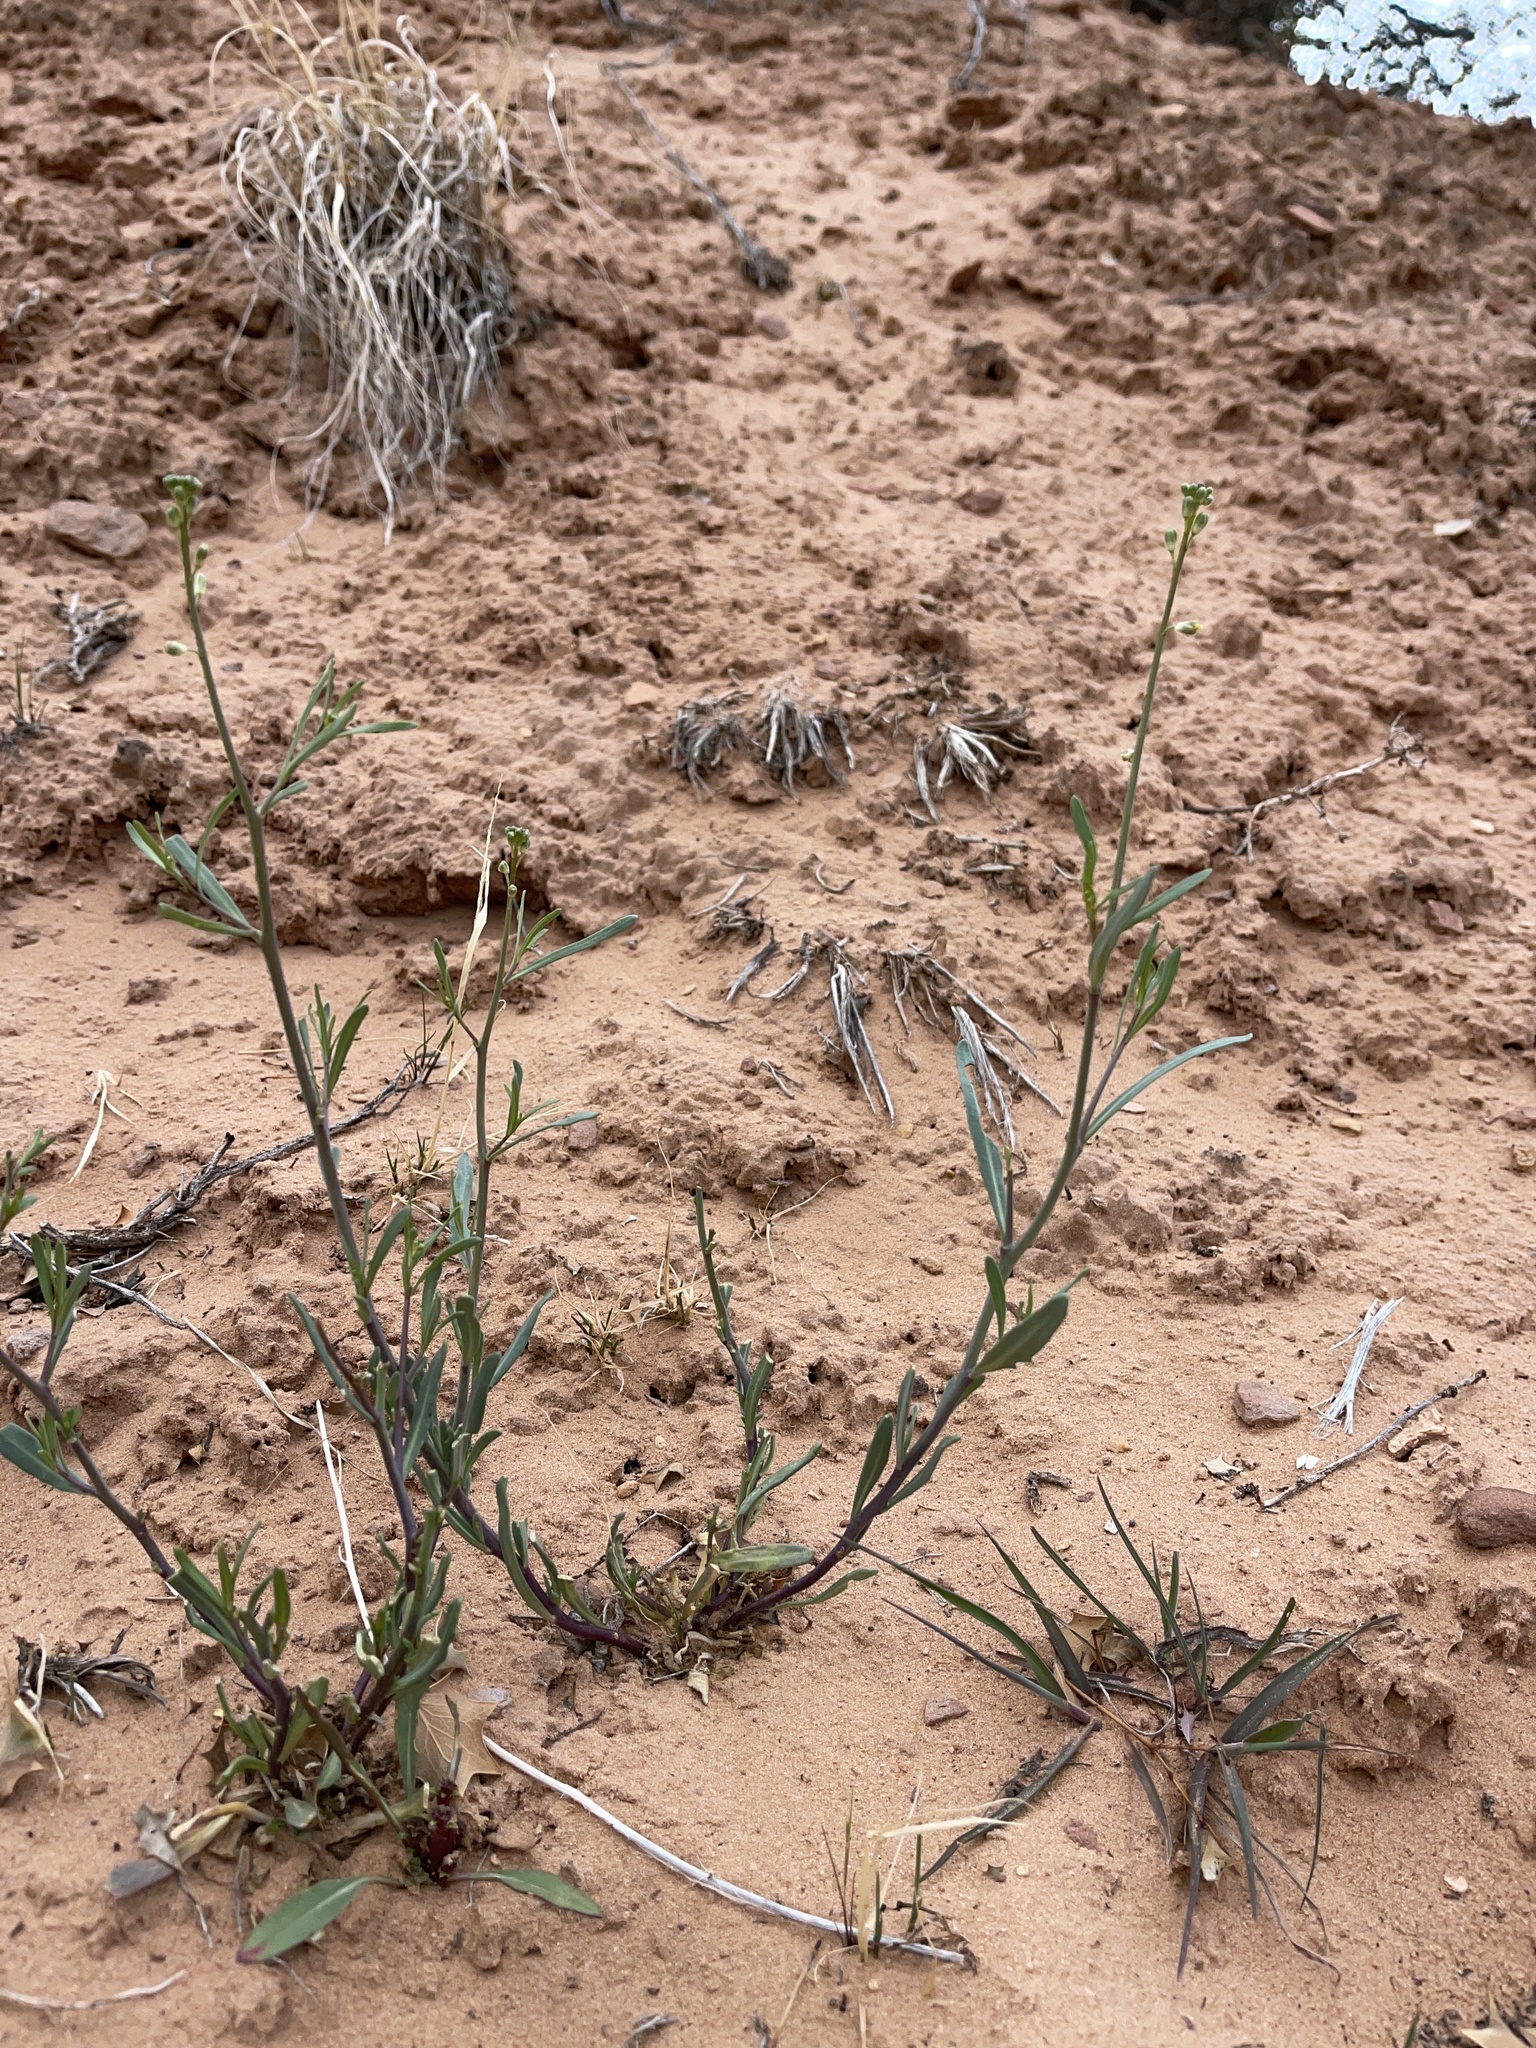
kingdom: Plantae
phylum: Tracheophyta
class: Magnoliopsida
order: Brassicales
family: Brassicaceae
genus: Streptanthus
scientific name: Streptanthus longirostris
